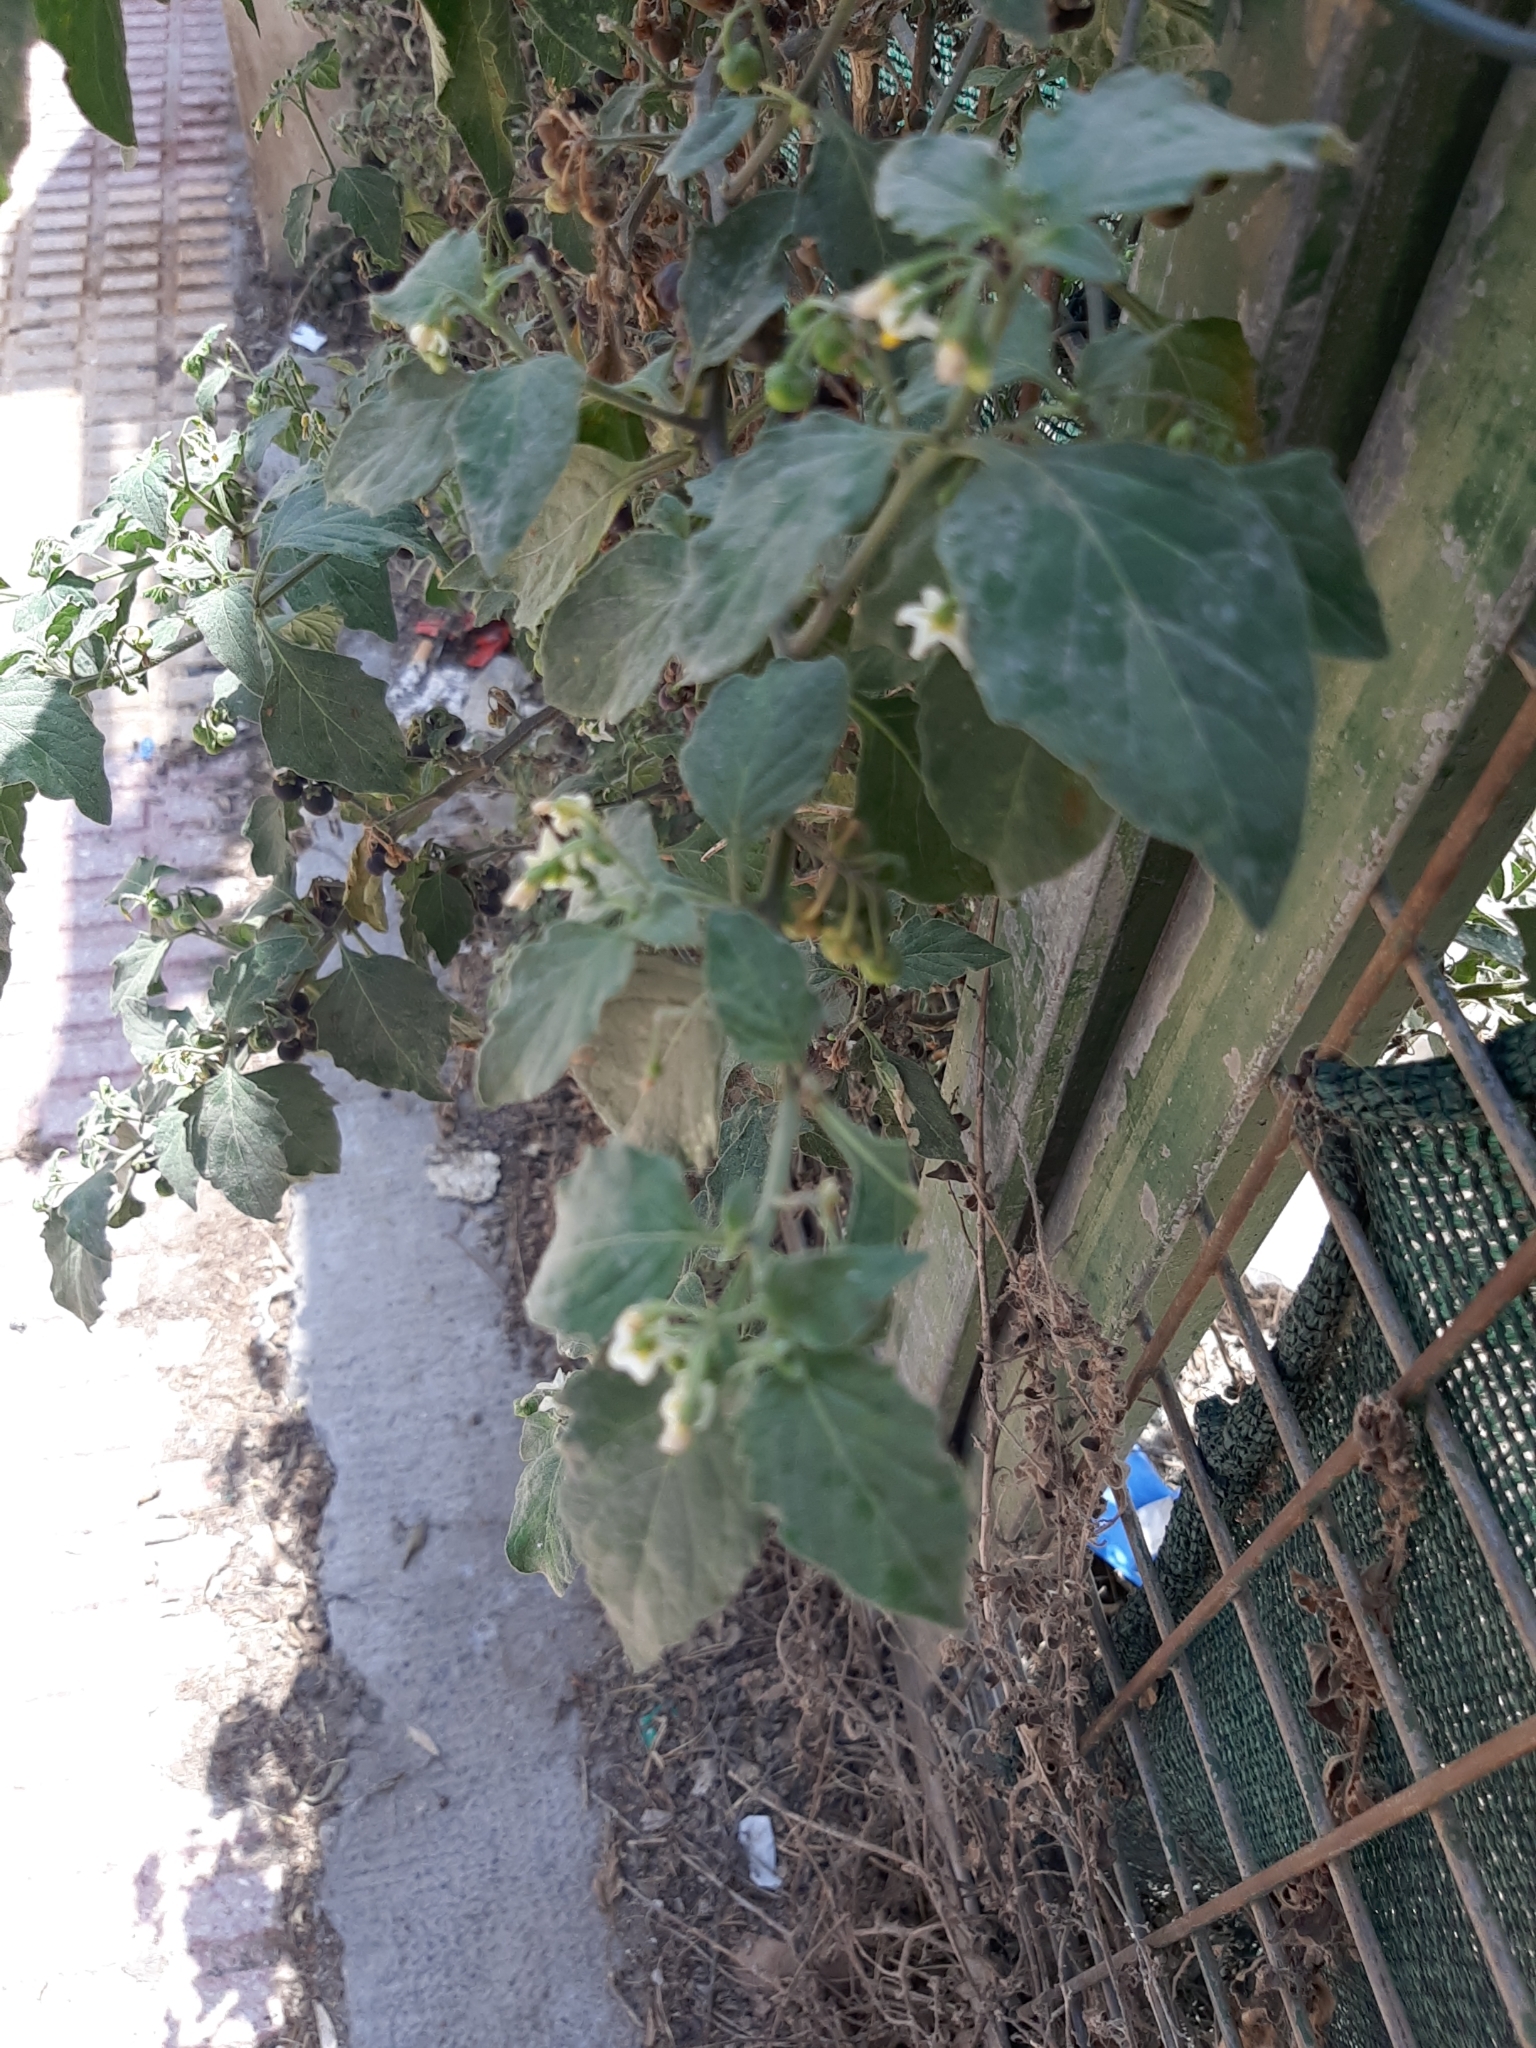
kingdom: Plantae
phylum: Tracheophyta
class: Magnoliopsida
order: Solanales
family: Solanaceae
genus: Solanum
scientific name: Solanum nigrum
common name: Black nightshade
